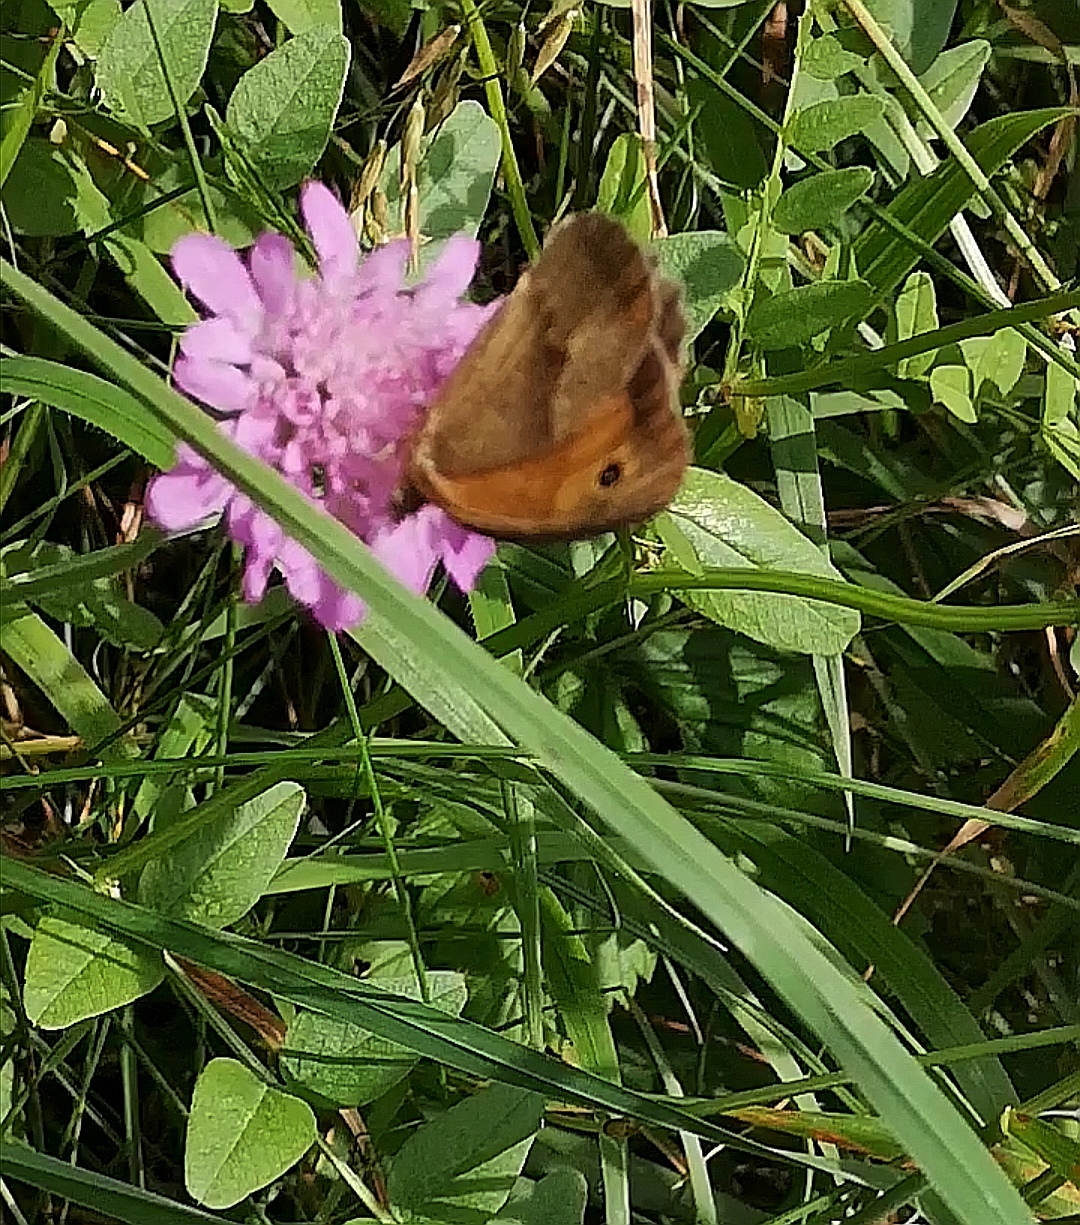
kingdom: Animalia
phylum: Arthropoda
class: Insecta
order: Lepidoptera
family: Nymphalidae
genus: Maniola
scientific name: Maniola jurtina
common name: Meadow brown
